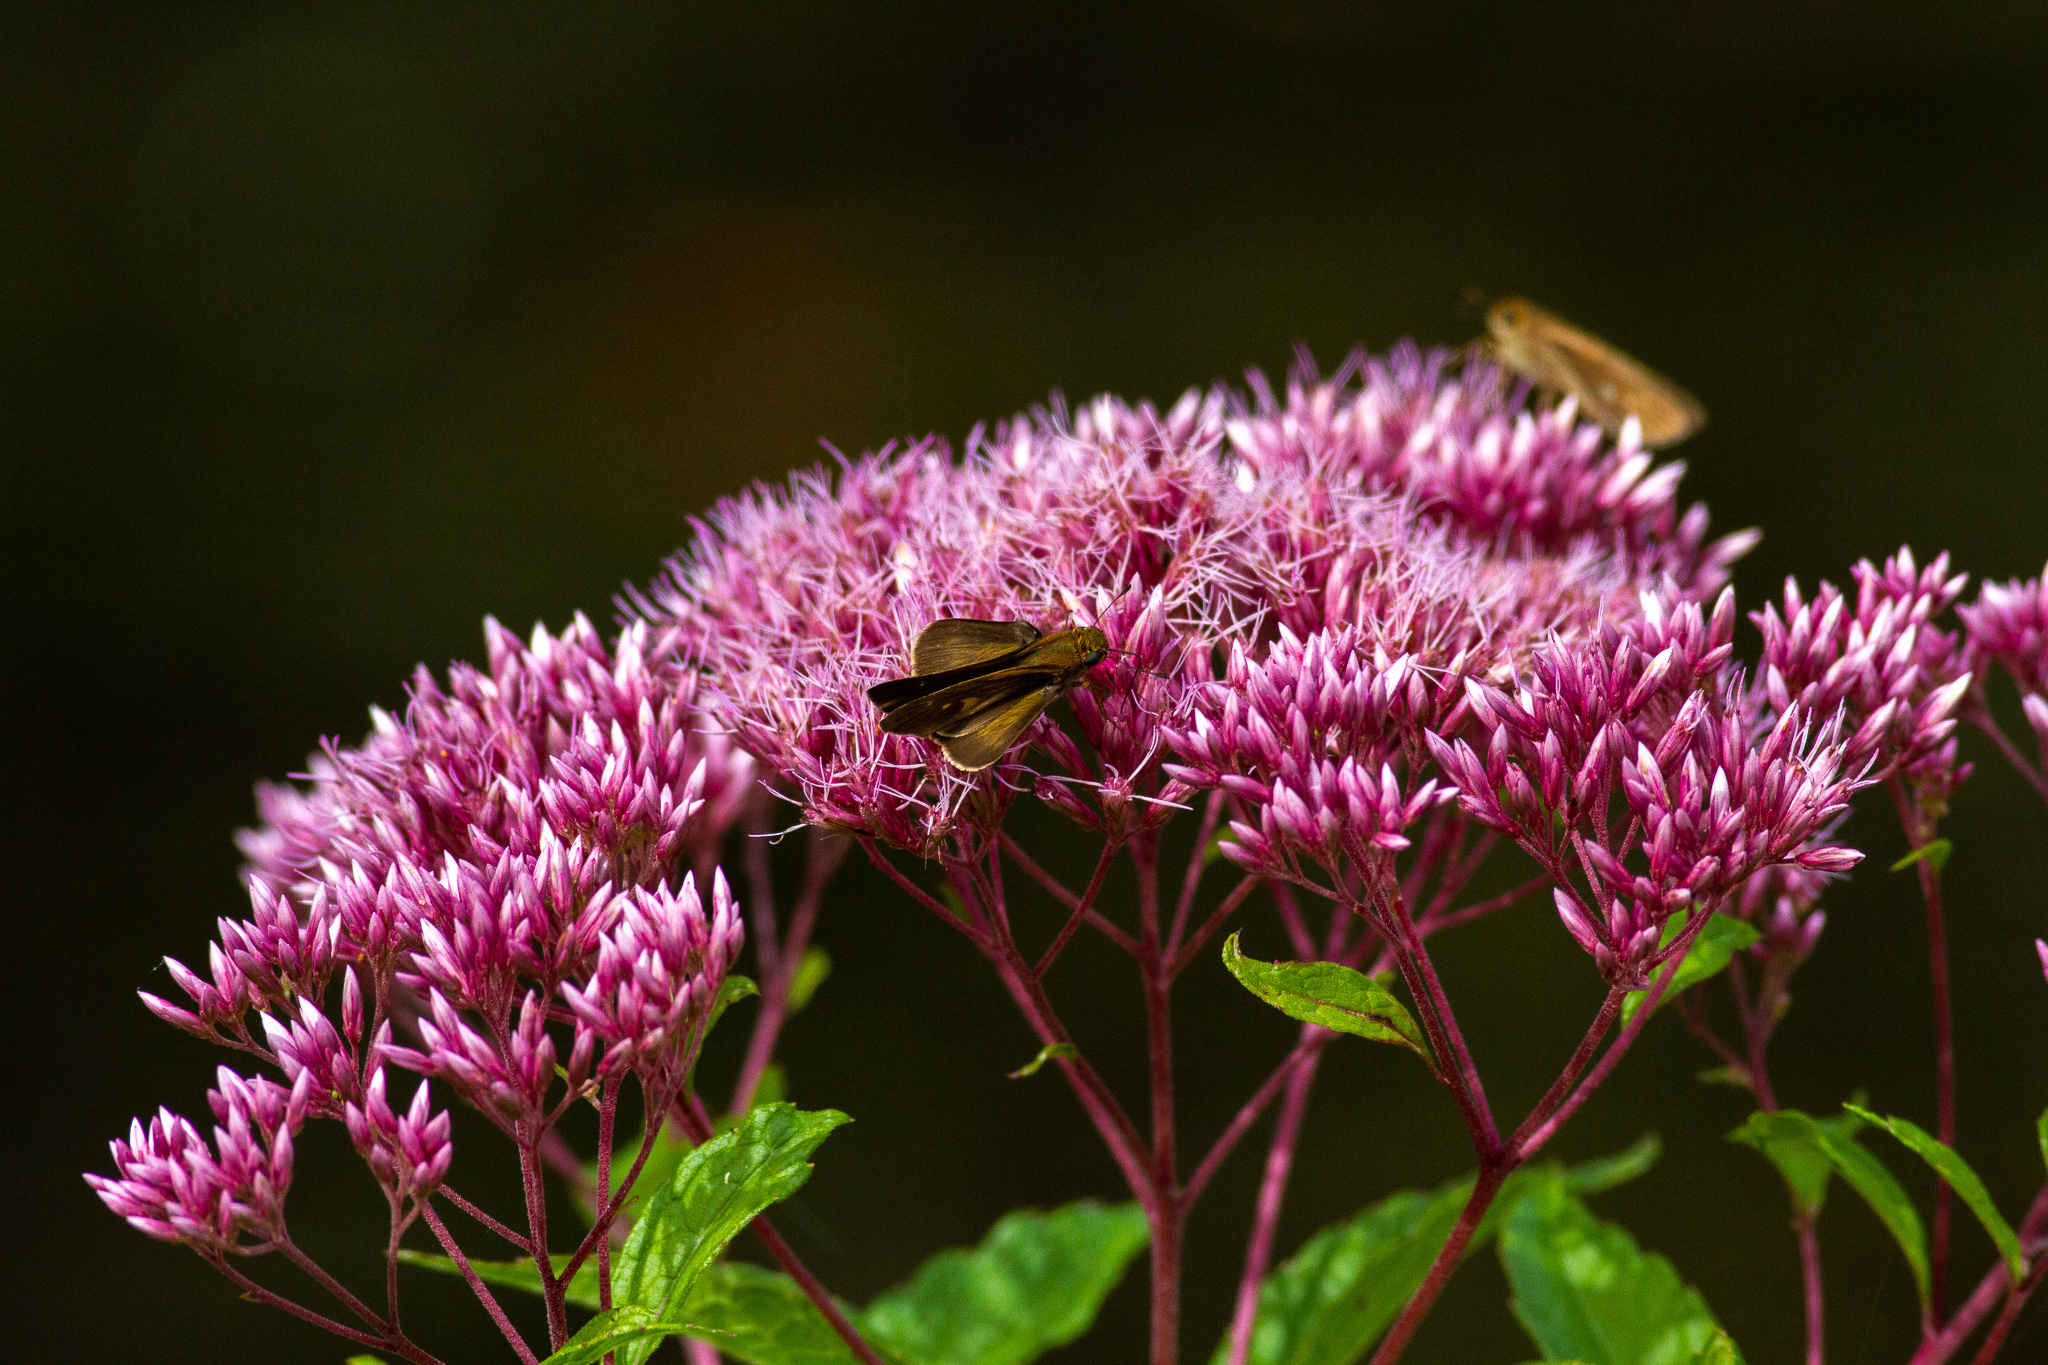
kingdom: Animalia
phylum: Arthropoda
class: Insecta
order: Lepidoptera
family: Hesperiidae
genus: Panoquina
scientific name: Panoquina ocola
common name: Ocola skipper
